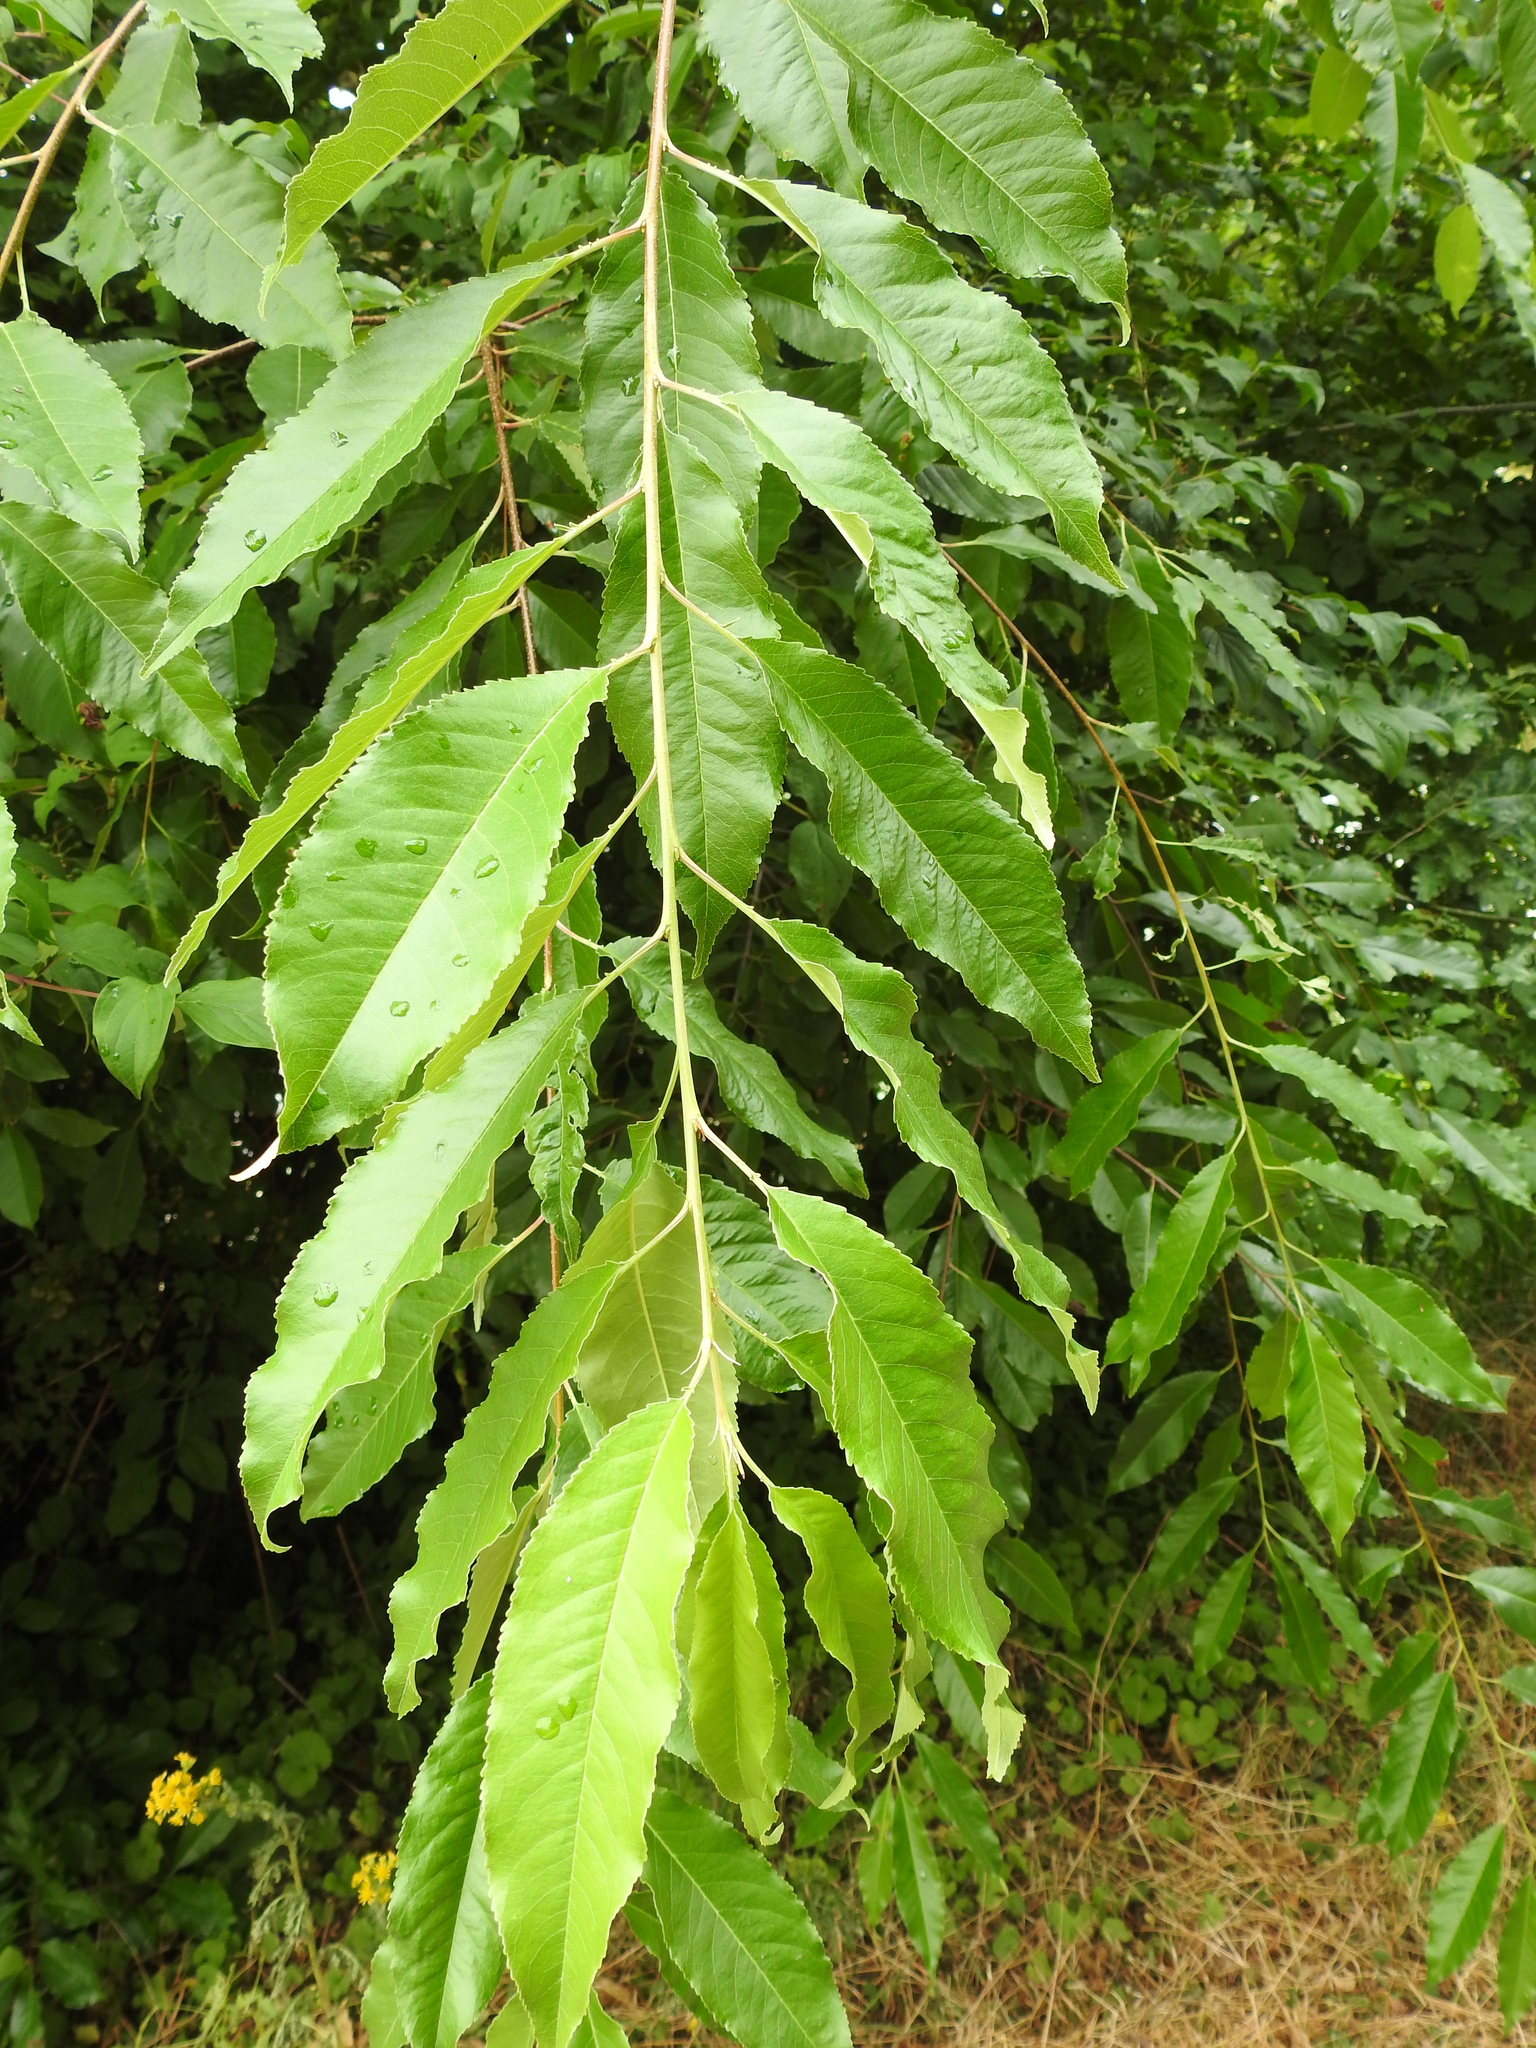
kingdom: Plantae
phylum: Tracheophyta
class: Magnoliopsida
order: Rosales
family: Rosaceae
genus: Prunus
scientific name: Prunus serotina
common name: Black cherry
